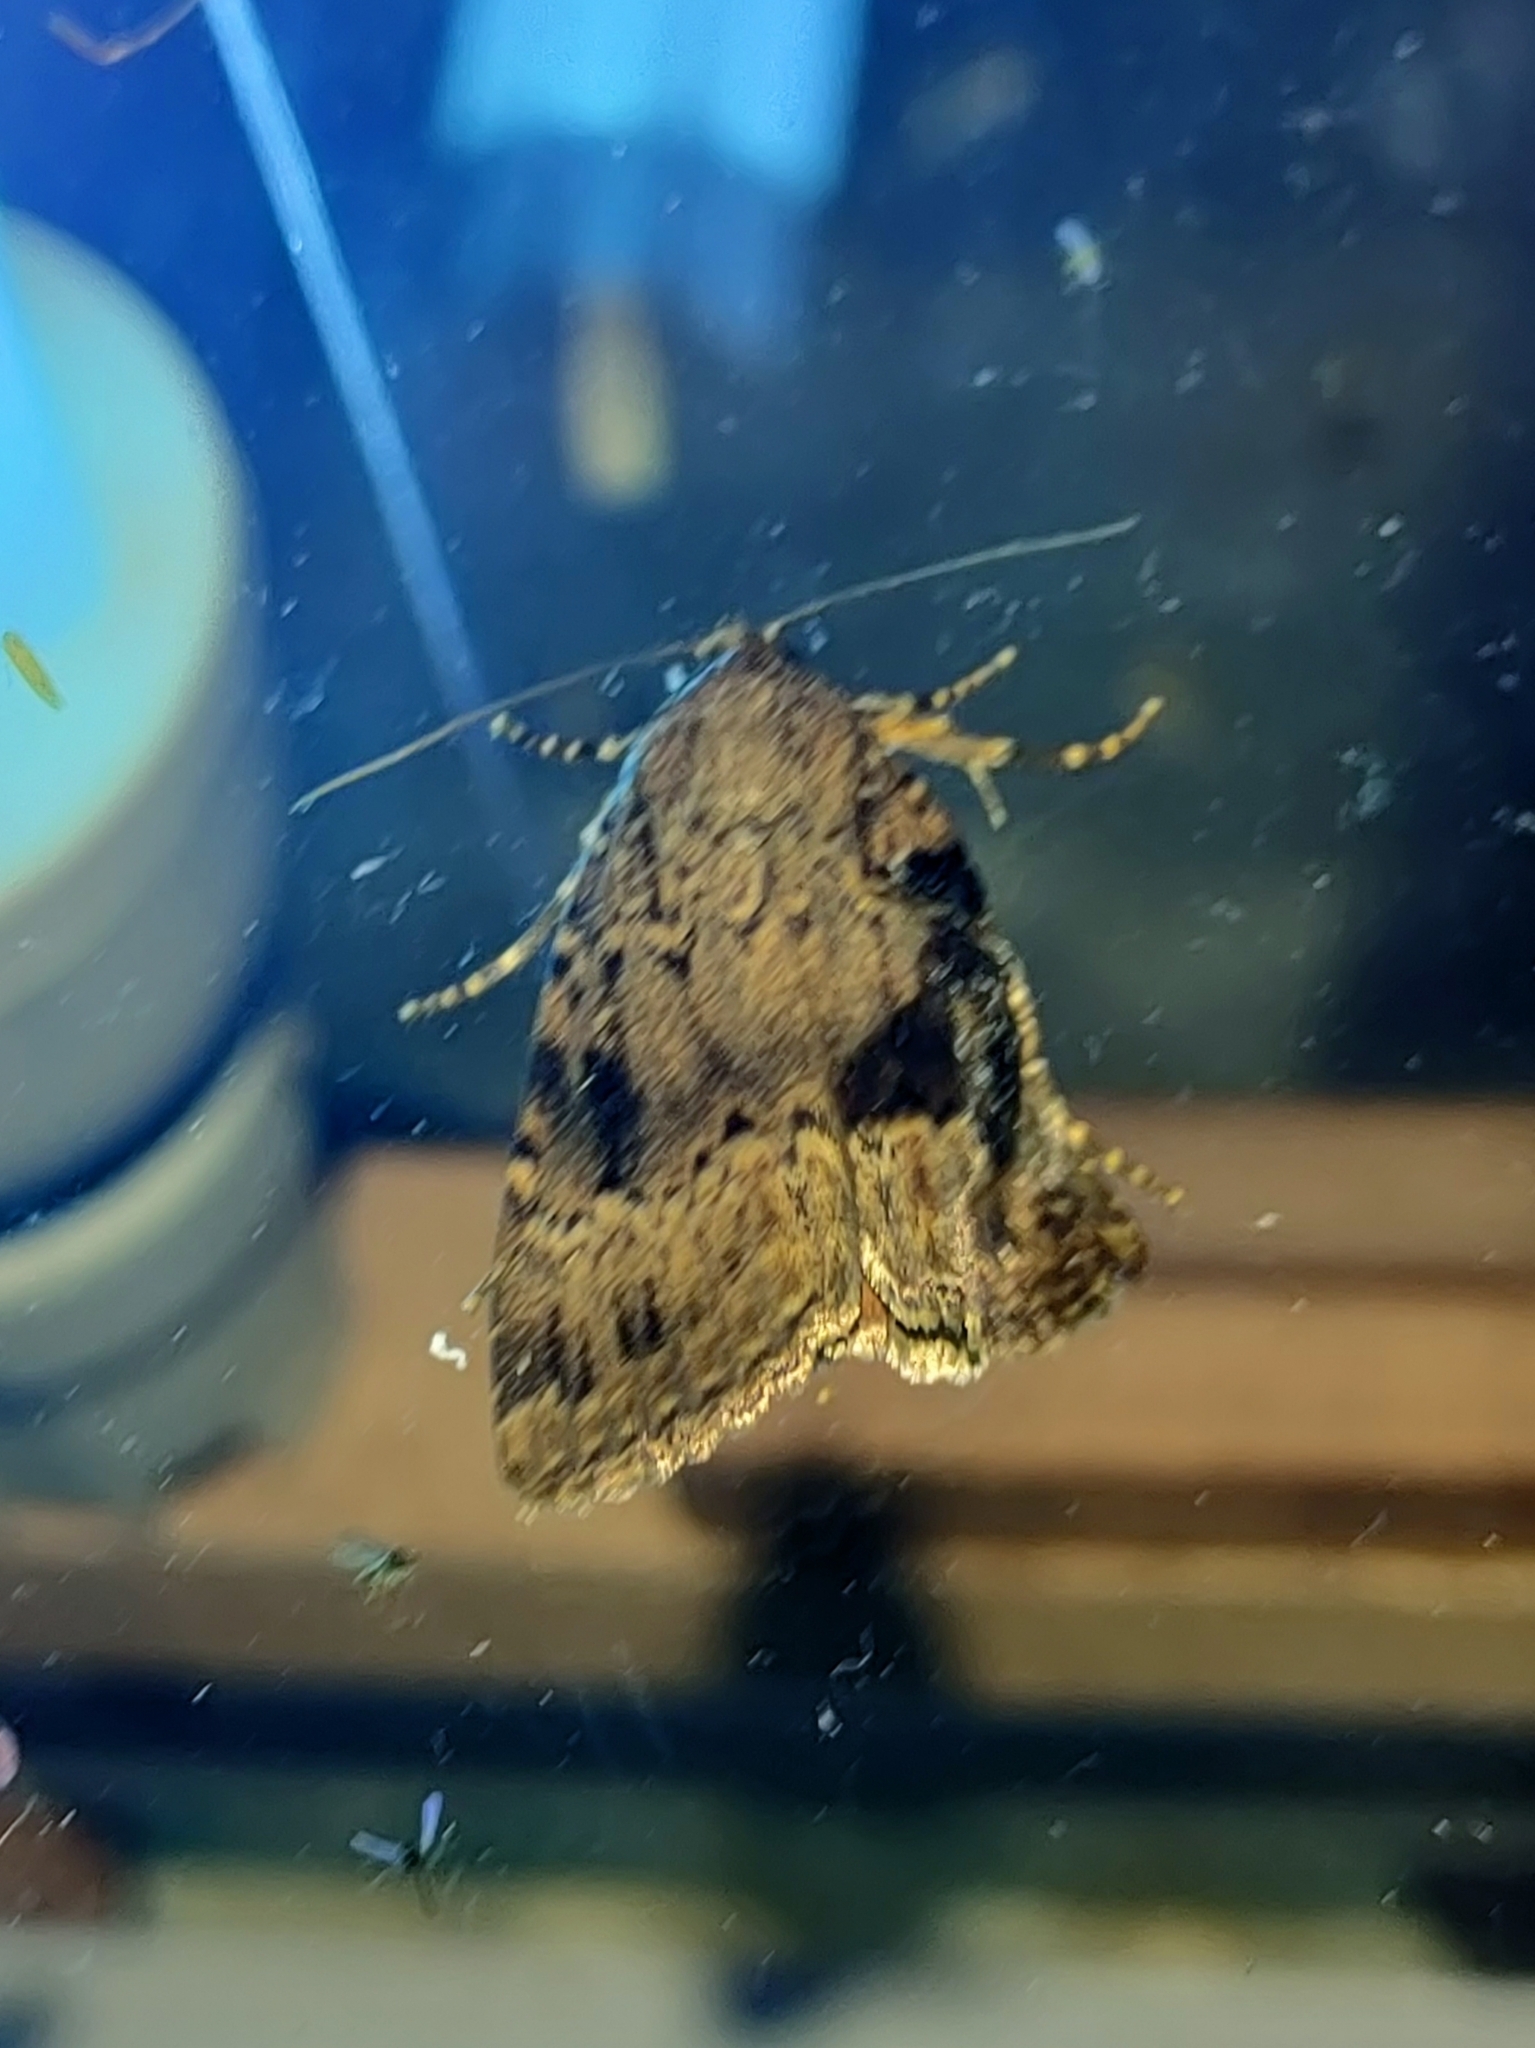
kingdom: Animalia
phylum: Arthropoda
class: Insecta
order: Lepidoptera
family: Noctuidae
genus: Amphipyra
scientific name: Amphipyra pyramidea
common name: Copper underwing
